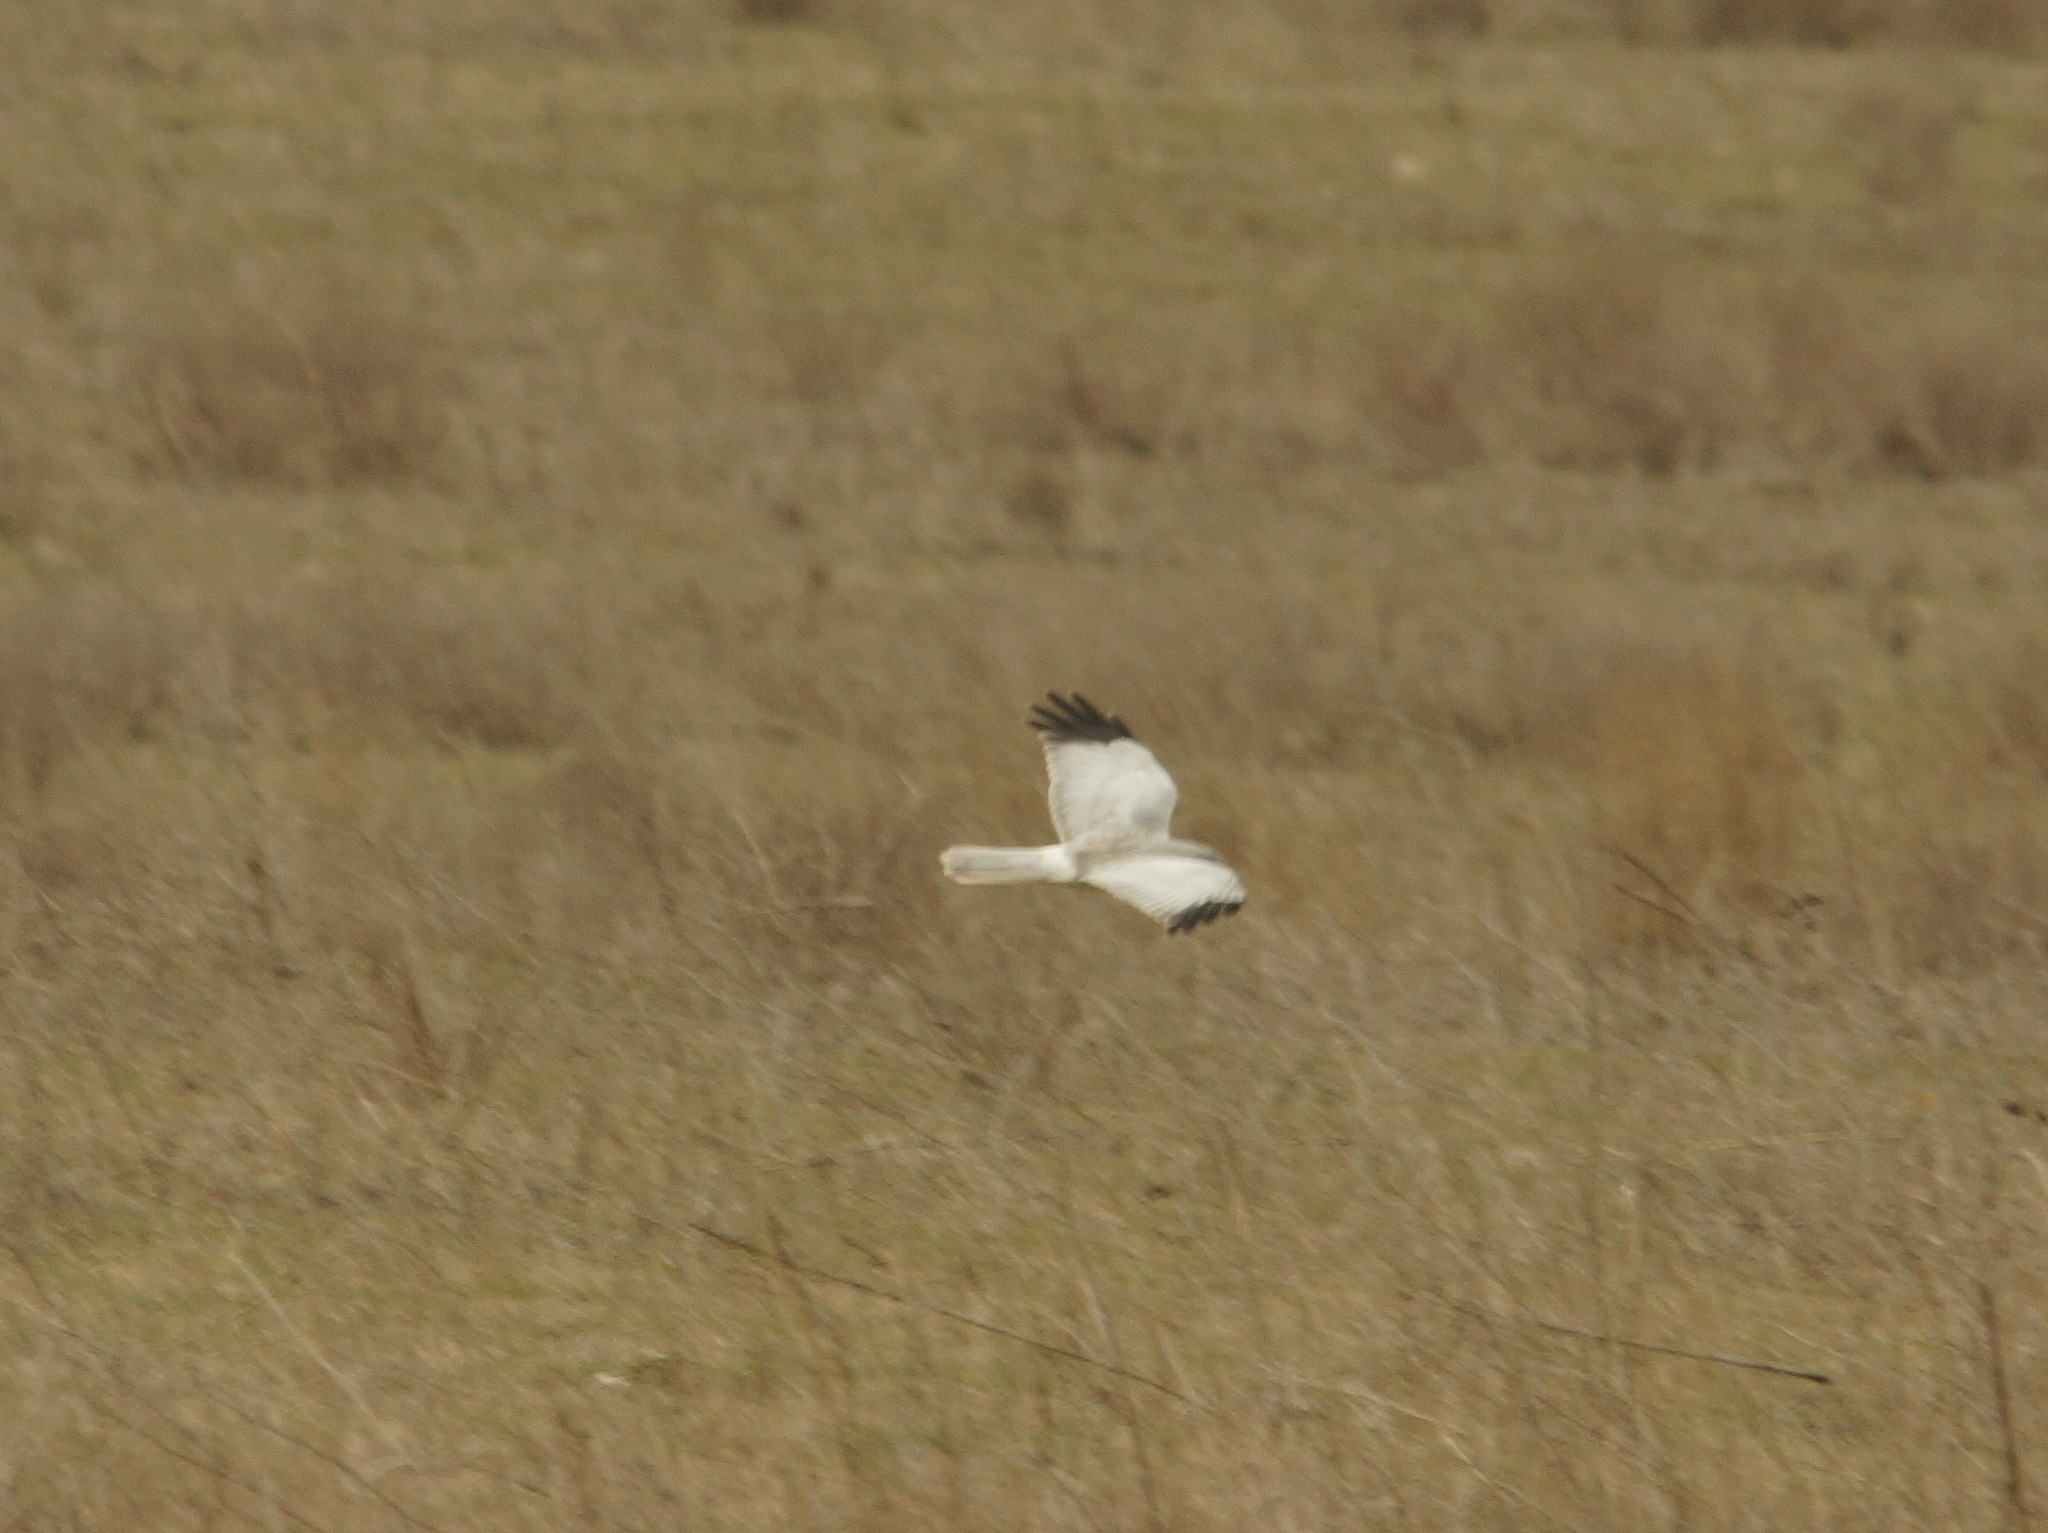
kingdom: Animalia
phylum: Chordata
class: Aves
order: Accipitriformes
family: Accipitridae
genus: Circus
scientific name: Circus cyaneus
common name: Hen harrier
